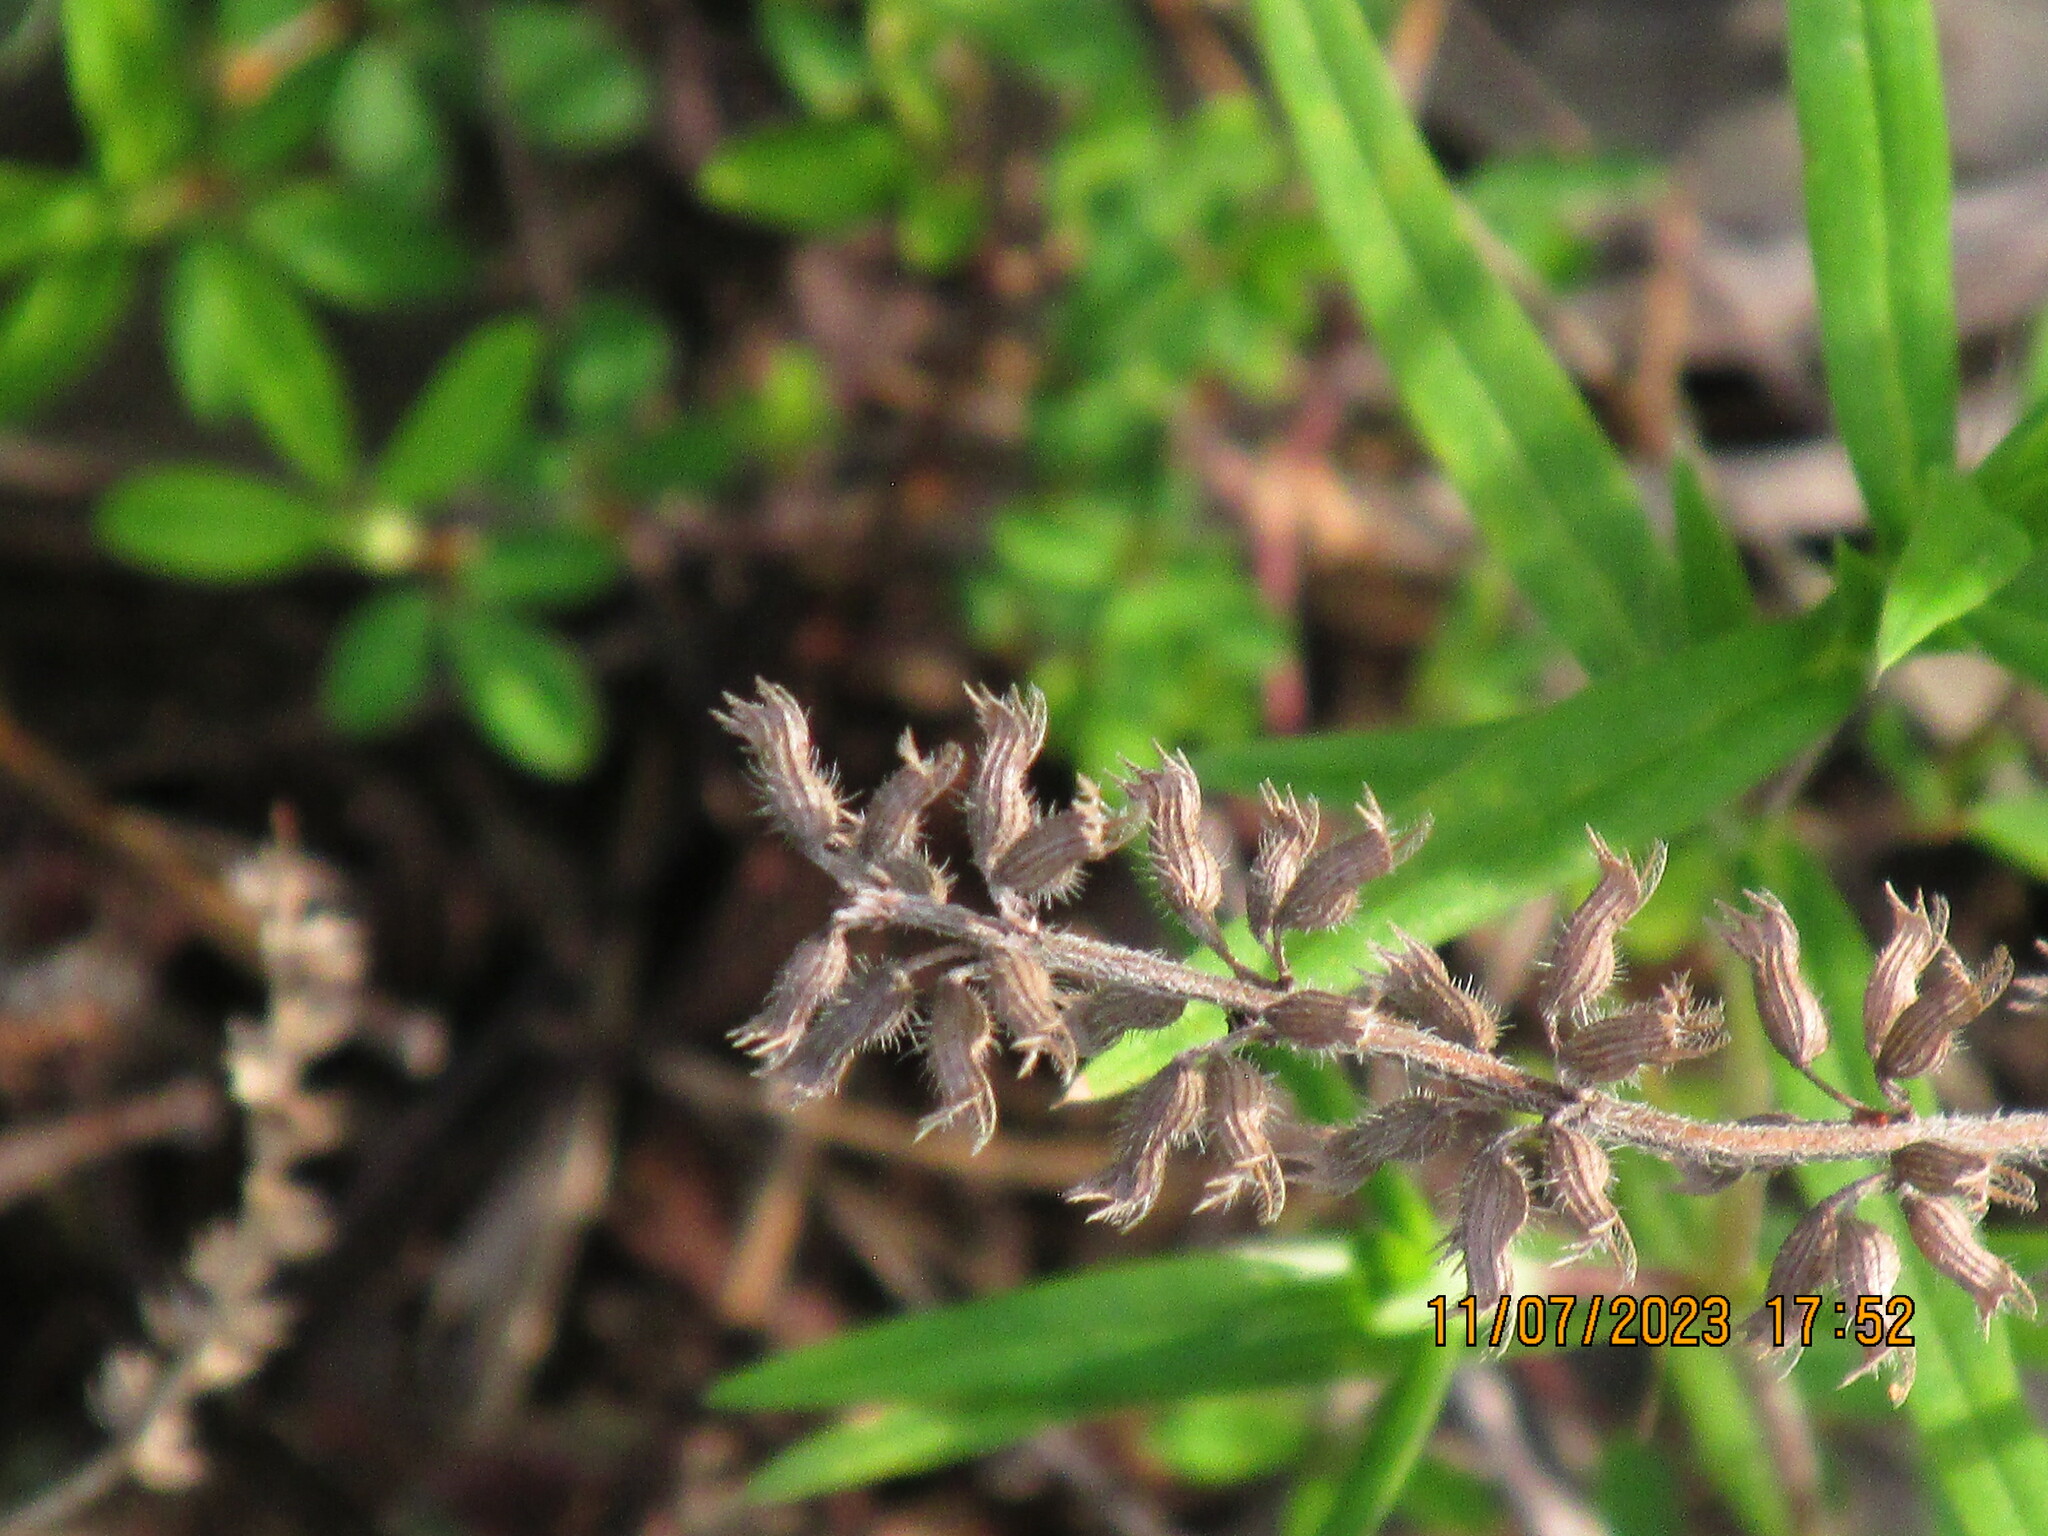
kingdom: Plantae
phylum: Tracheophyta
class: Magnoliopsida
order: Lamiales
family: Lamiaceae
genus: Hedeoma
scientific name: Hedeoma hispida
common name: Mock pennyroyal
